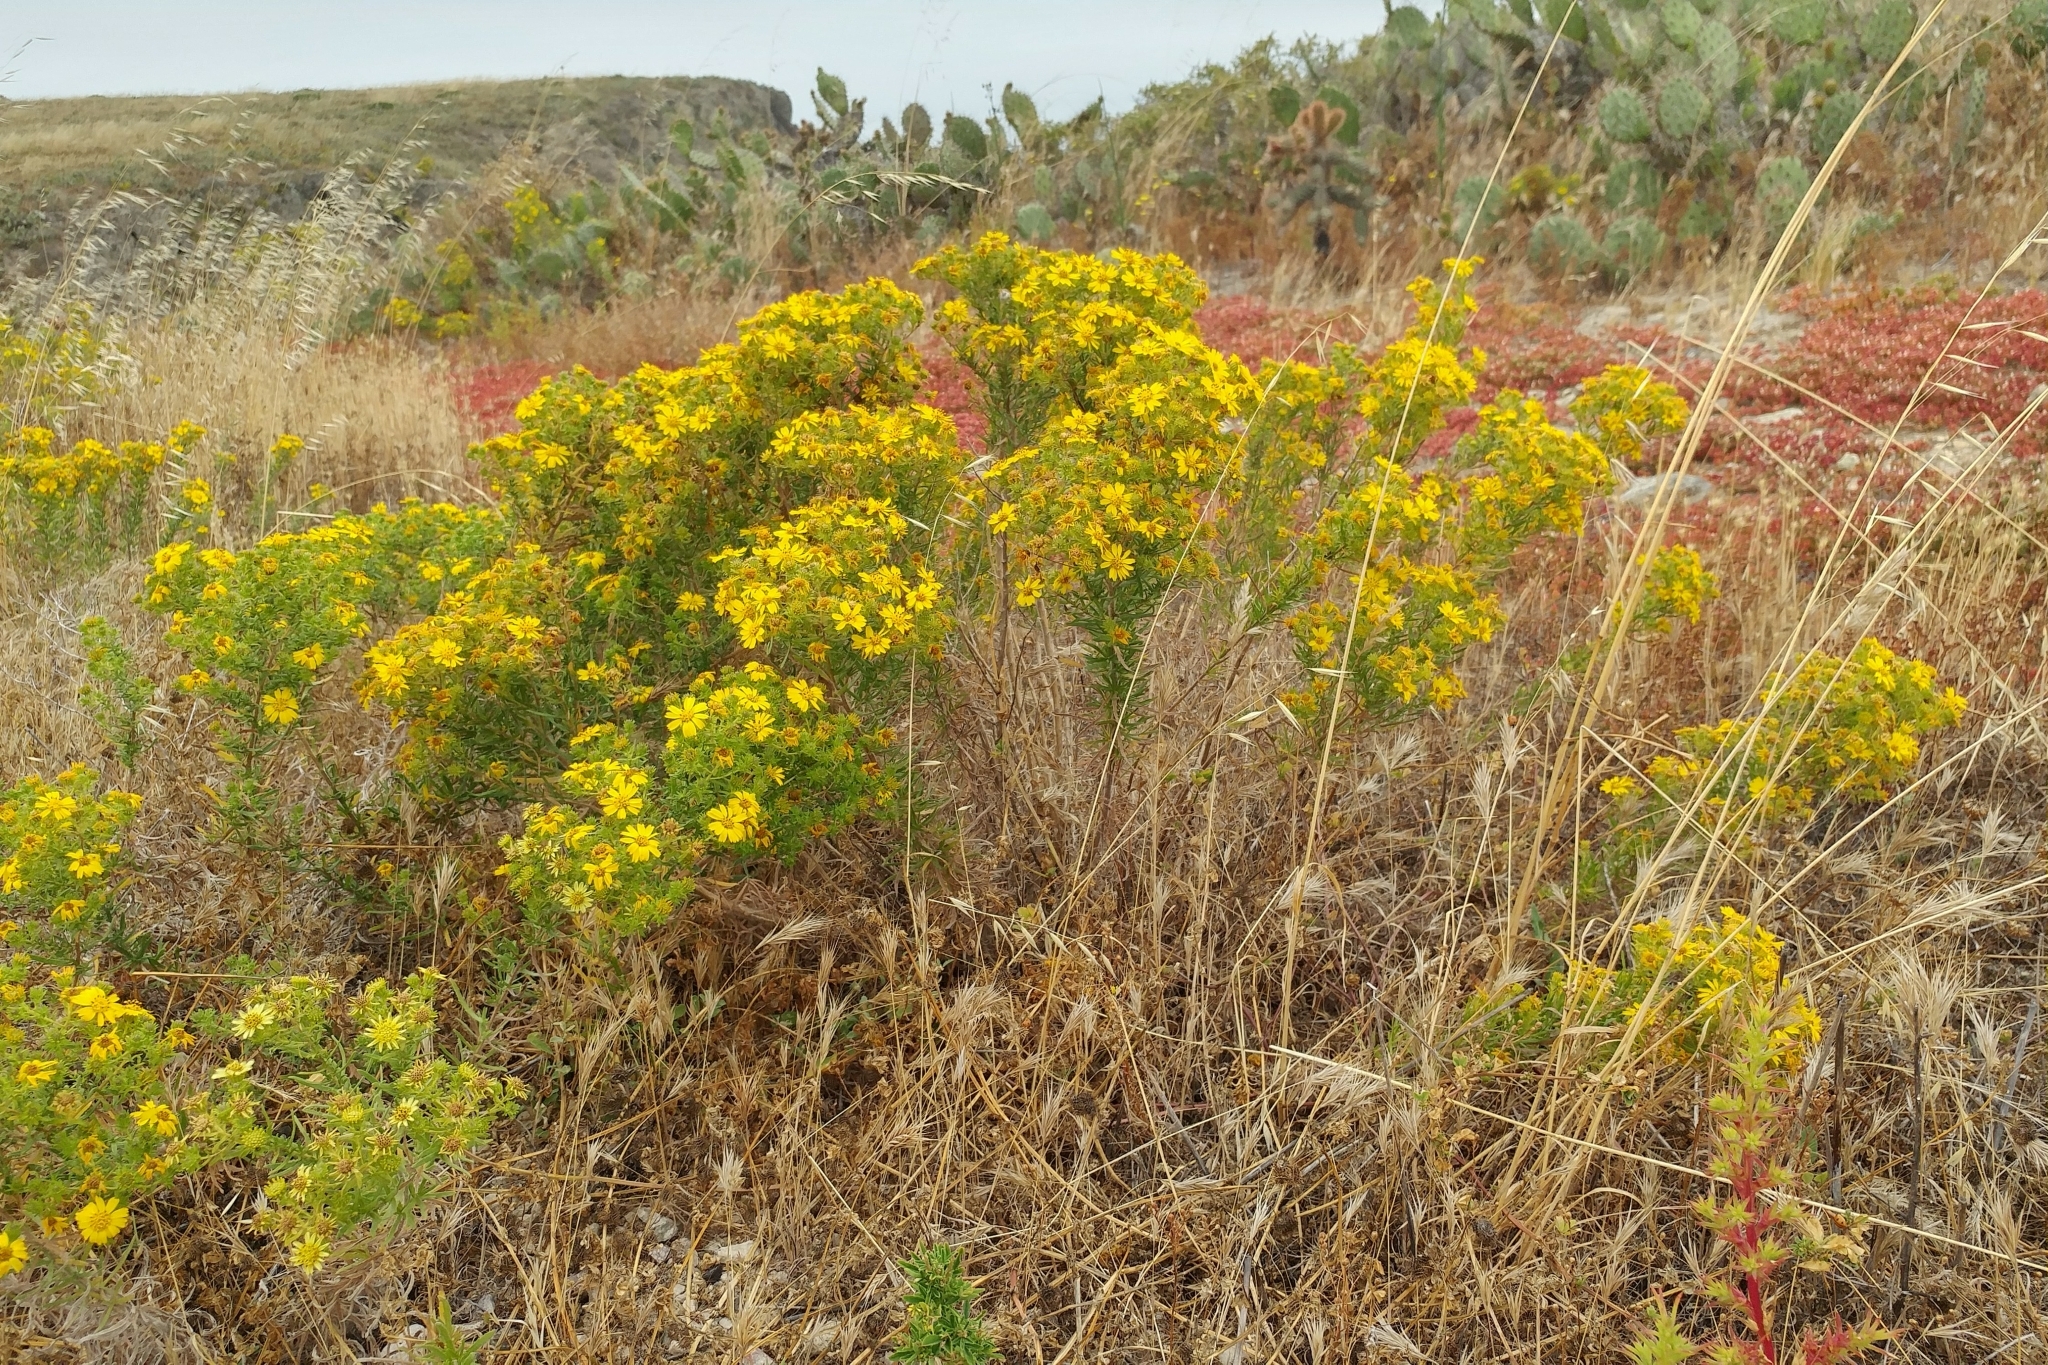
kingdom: Plantae
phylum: Tracheophyta
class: Magnoliopsida
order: Asterales
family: Asteraceae
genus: Deinandra
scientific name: Deinandra clementina
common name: Island tarplant
